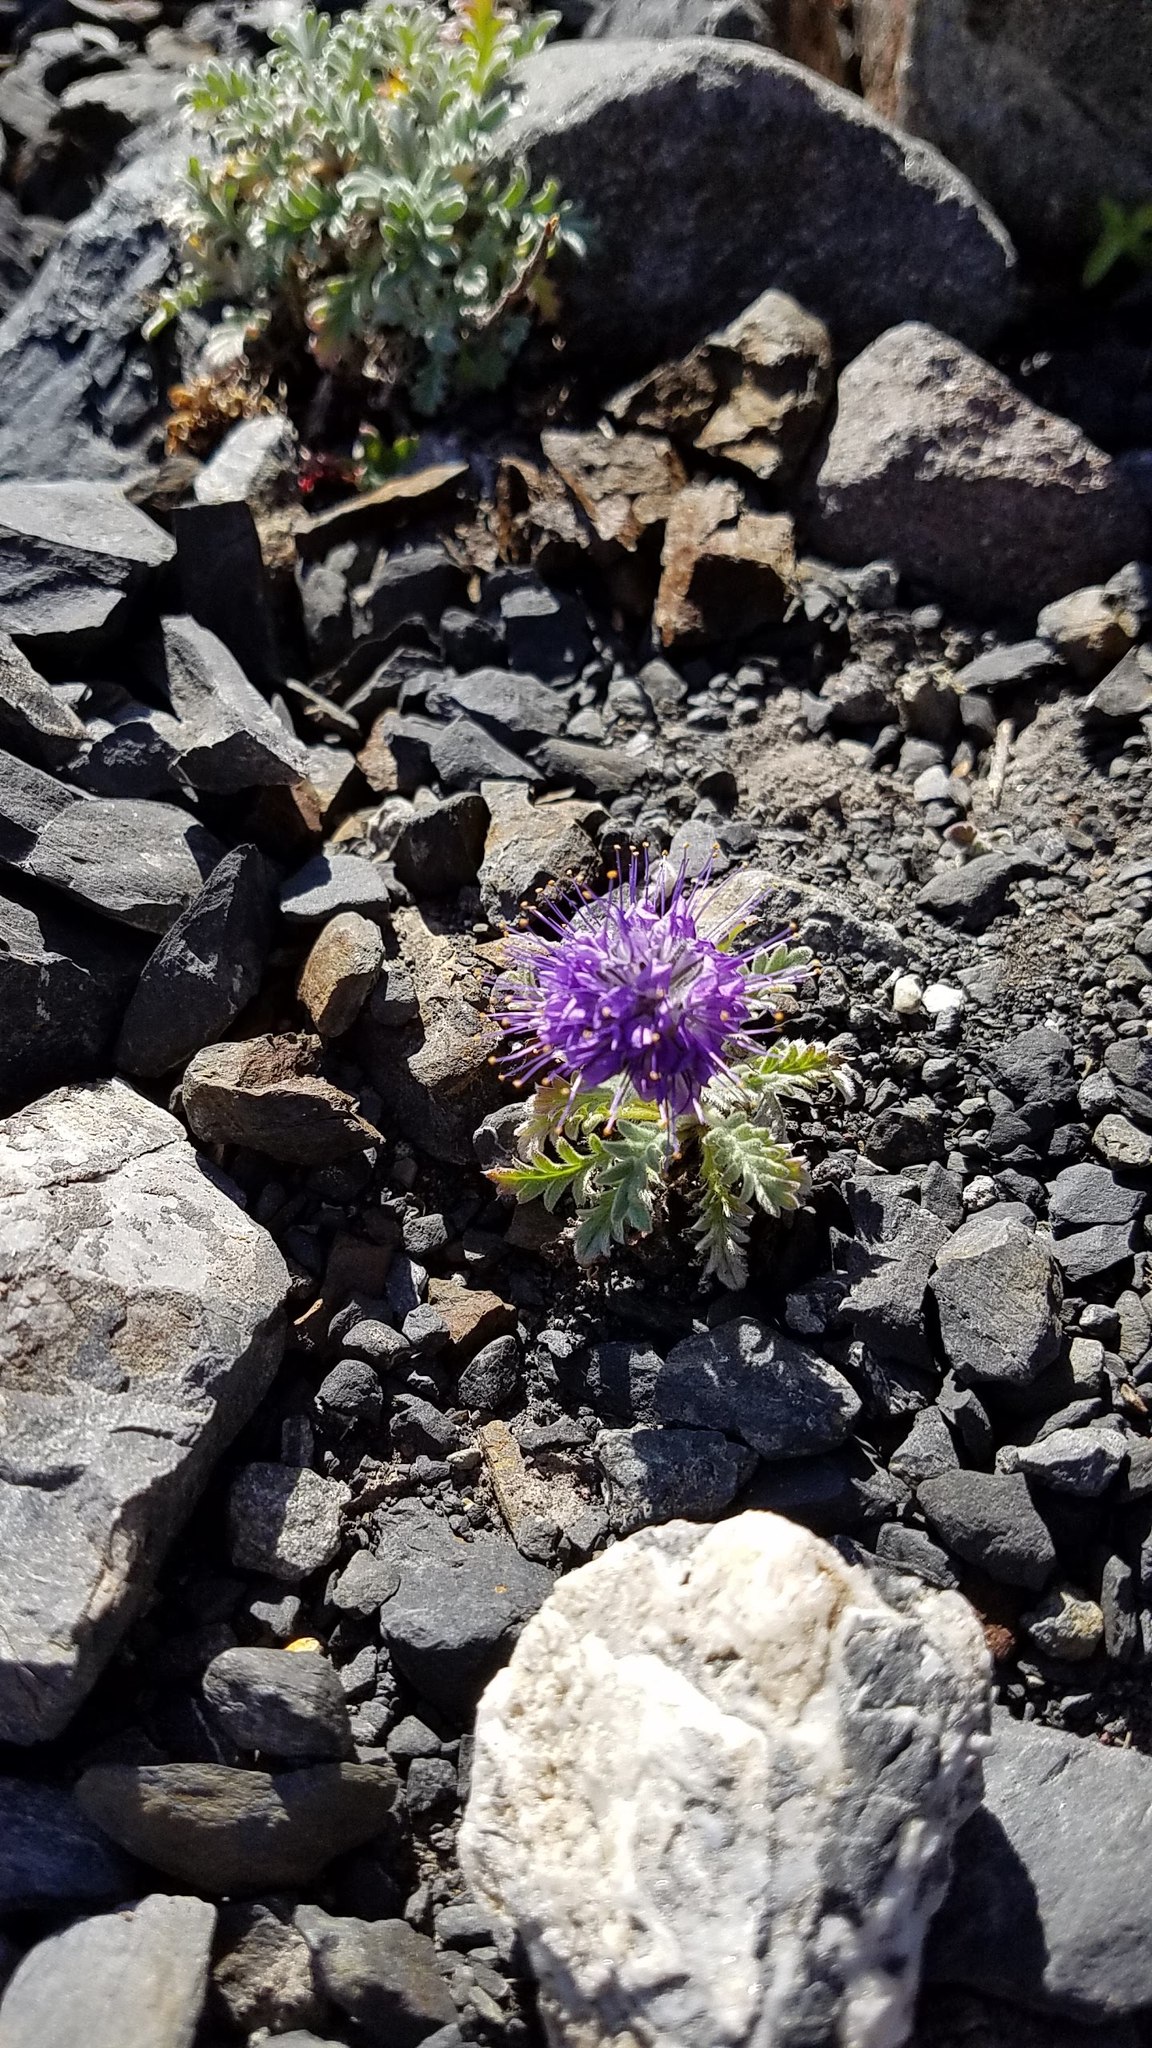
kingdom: Plantae
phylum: Tracheophyta
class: Magnoliopsida
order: Boraginales
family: Hydrophyllaceae
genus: Phacelia
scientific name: Phacelia sericea
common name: Silky phacelia
